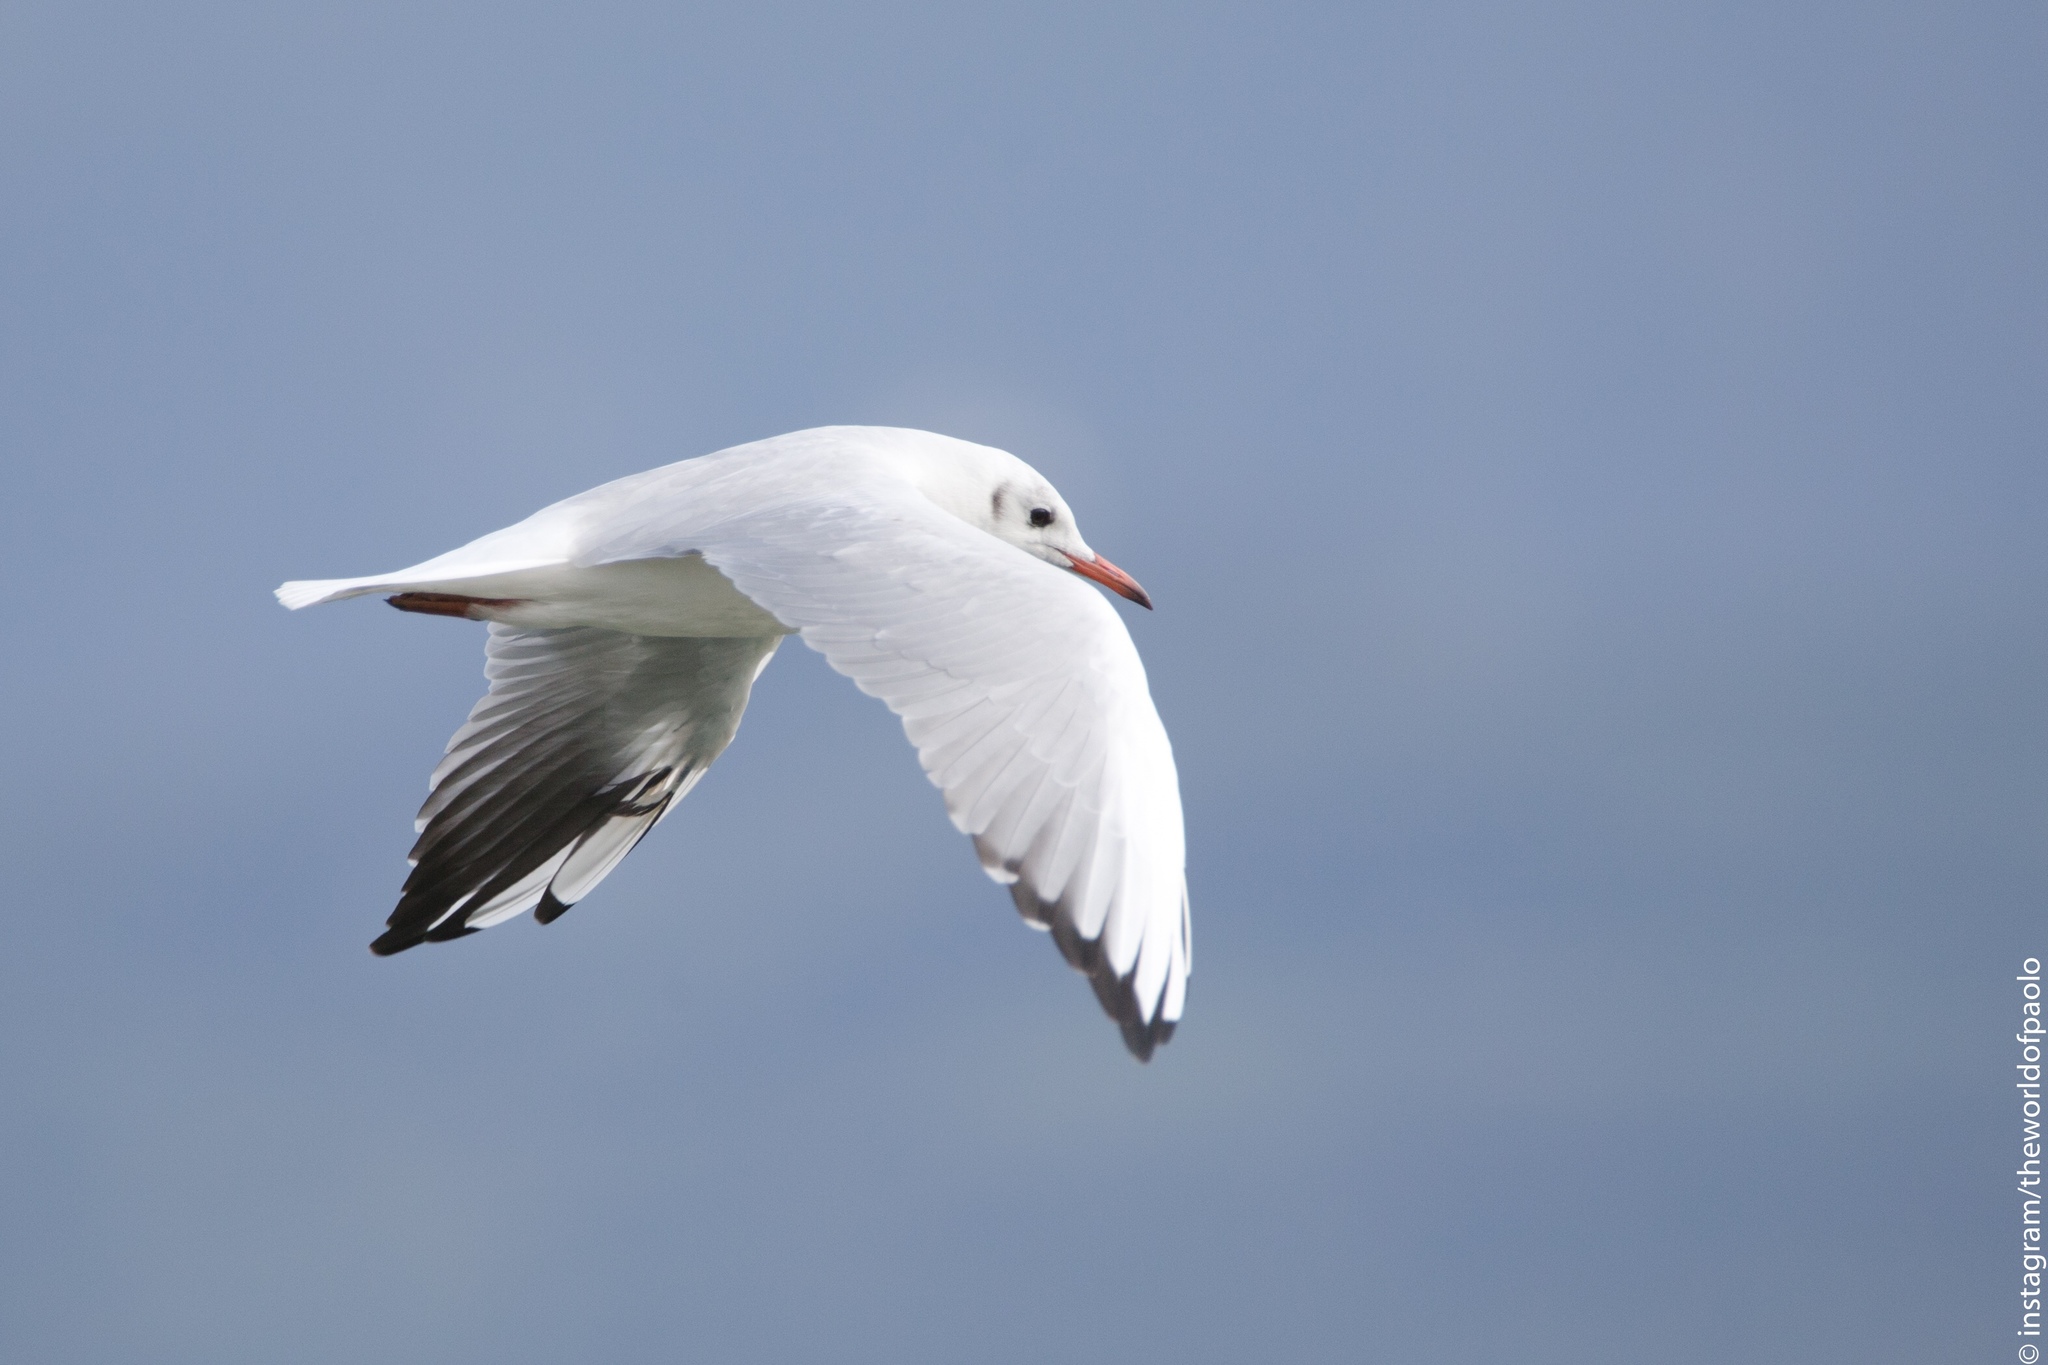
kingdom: Animalia
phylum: Chordata
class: Aves
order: Charadriiformes
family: Laridae
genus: Chroicocephalus
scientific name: Chroicocephalus ridibundus
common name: Black-headed gull
